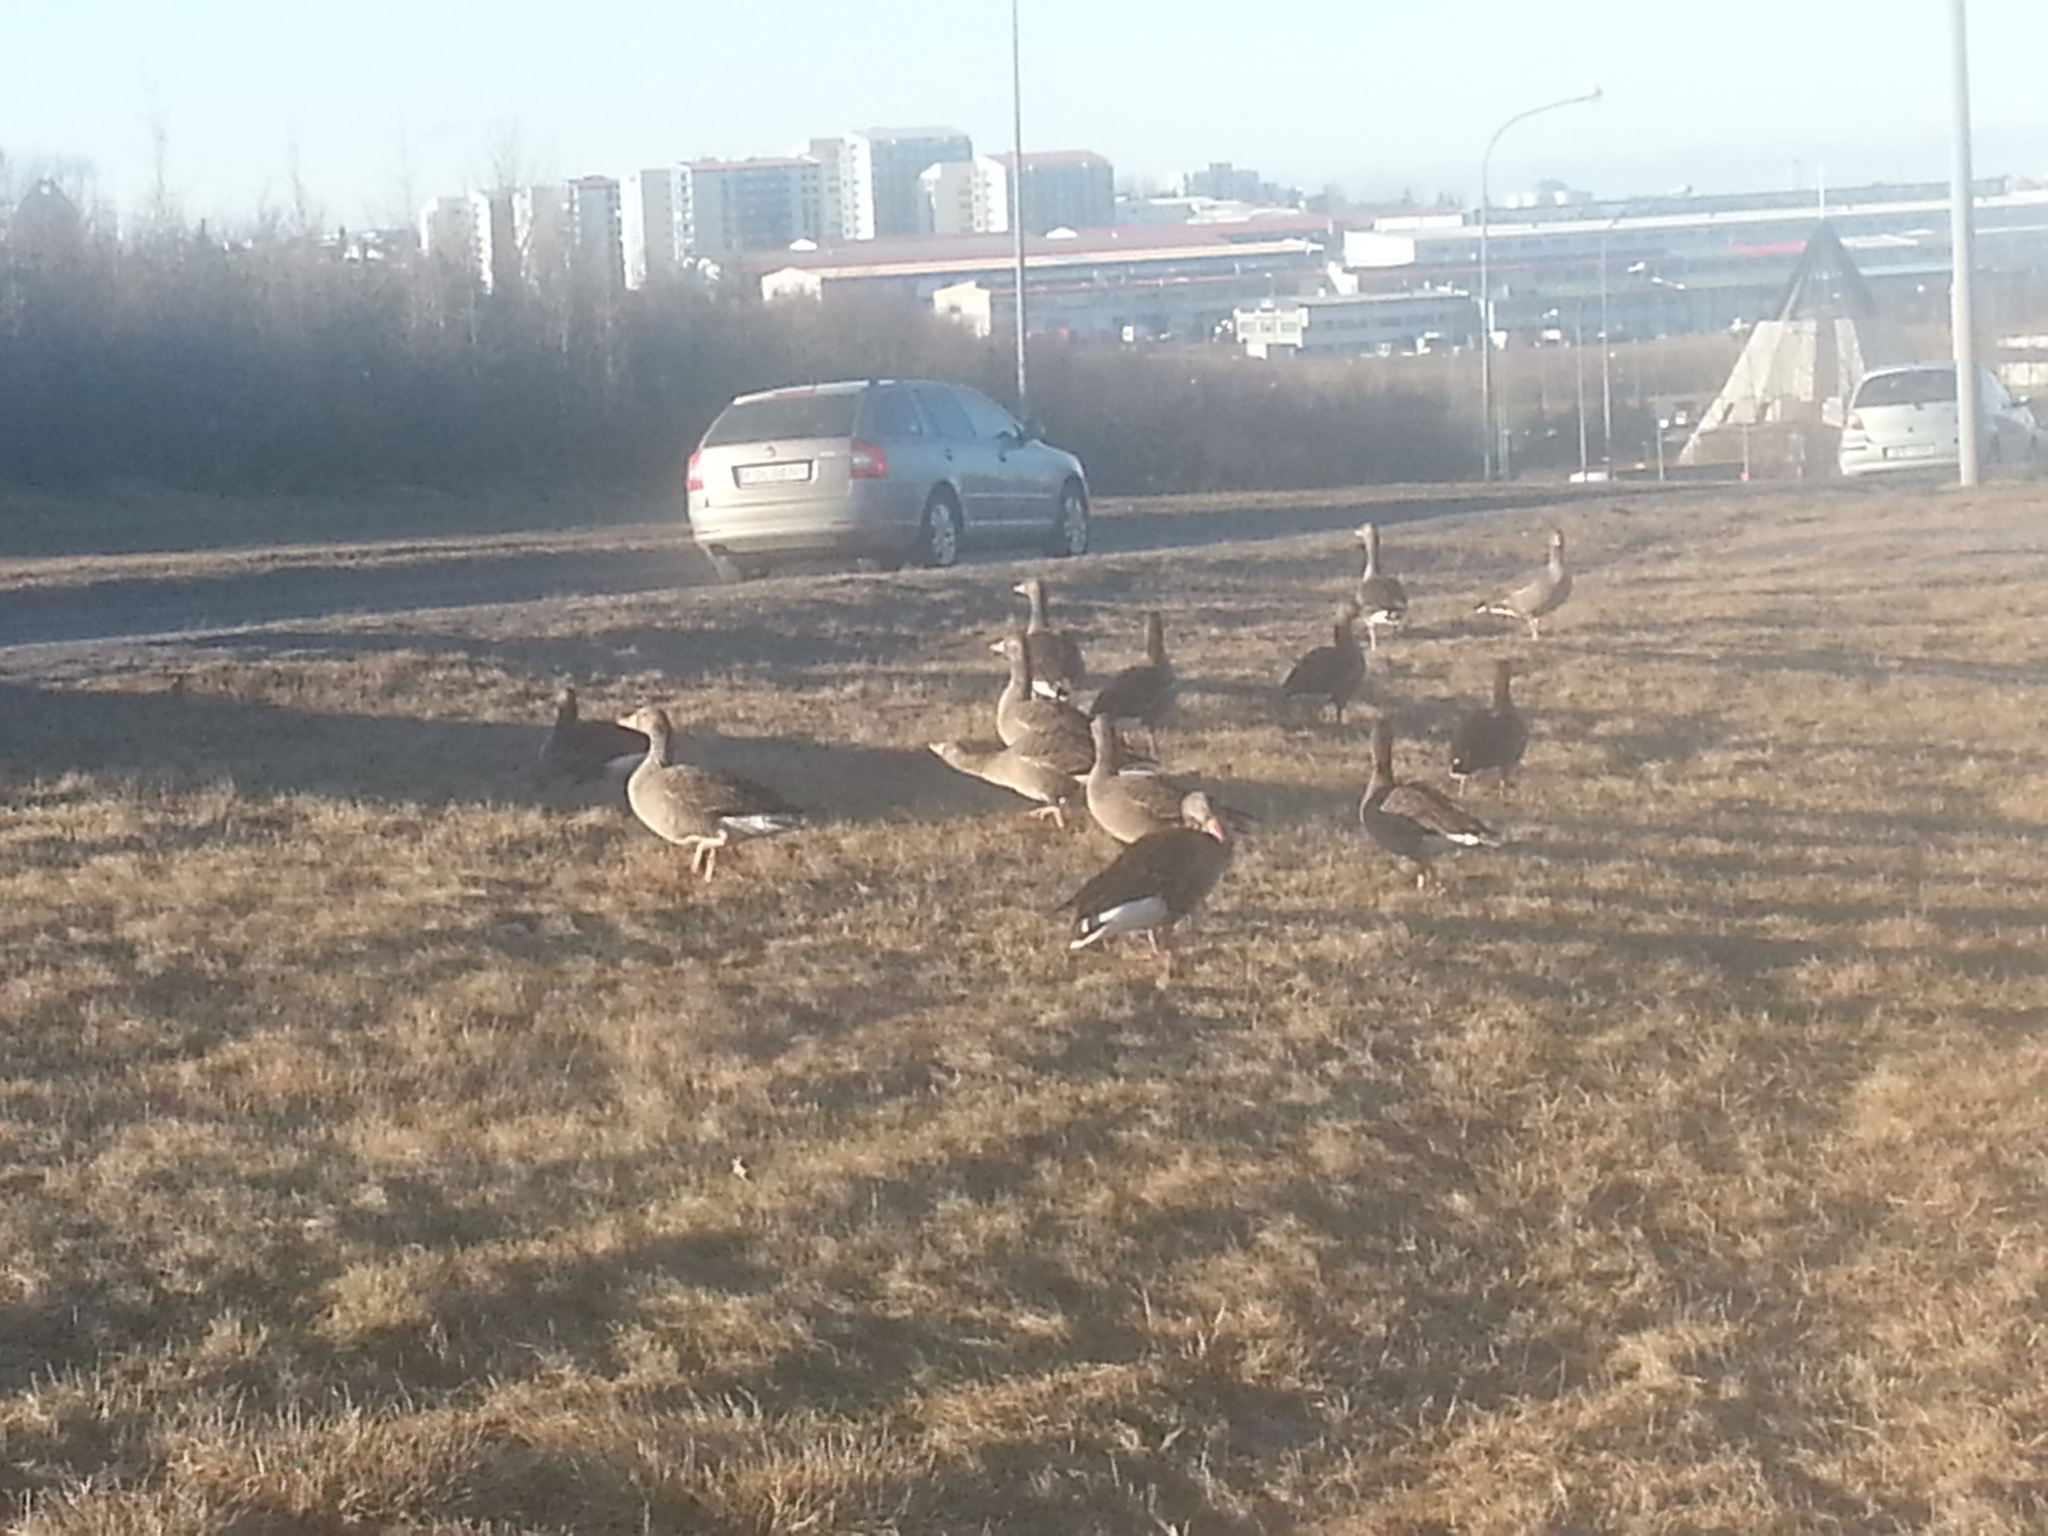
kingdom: Animalia
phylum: Chordata
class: Aves
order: Anseriformes
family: Anatidae
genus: Anser
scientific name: Anser anser
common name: Greylag goose
